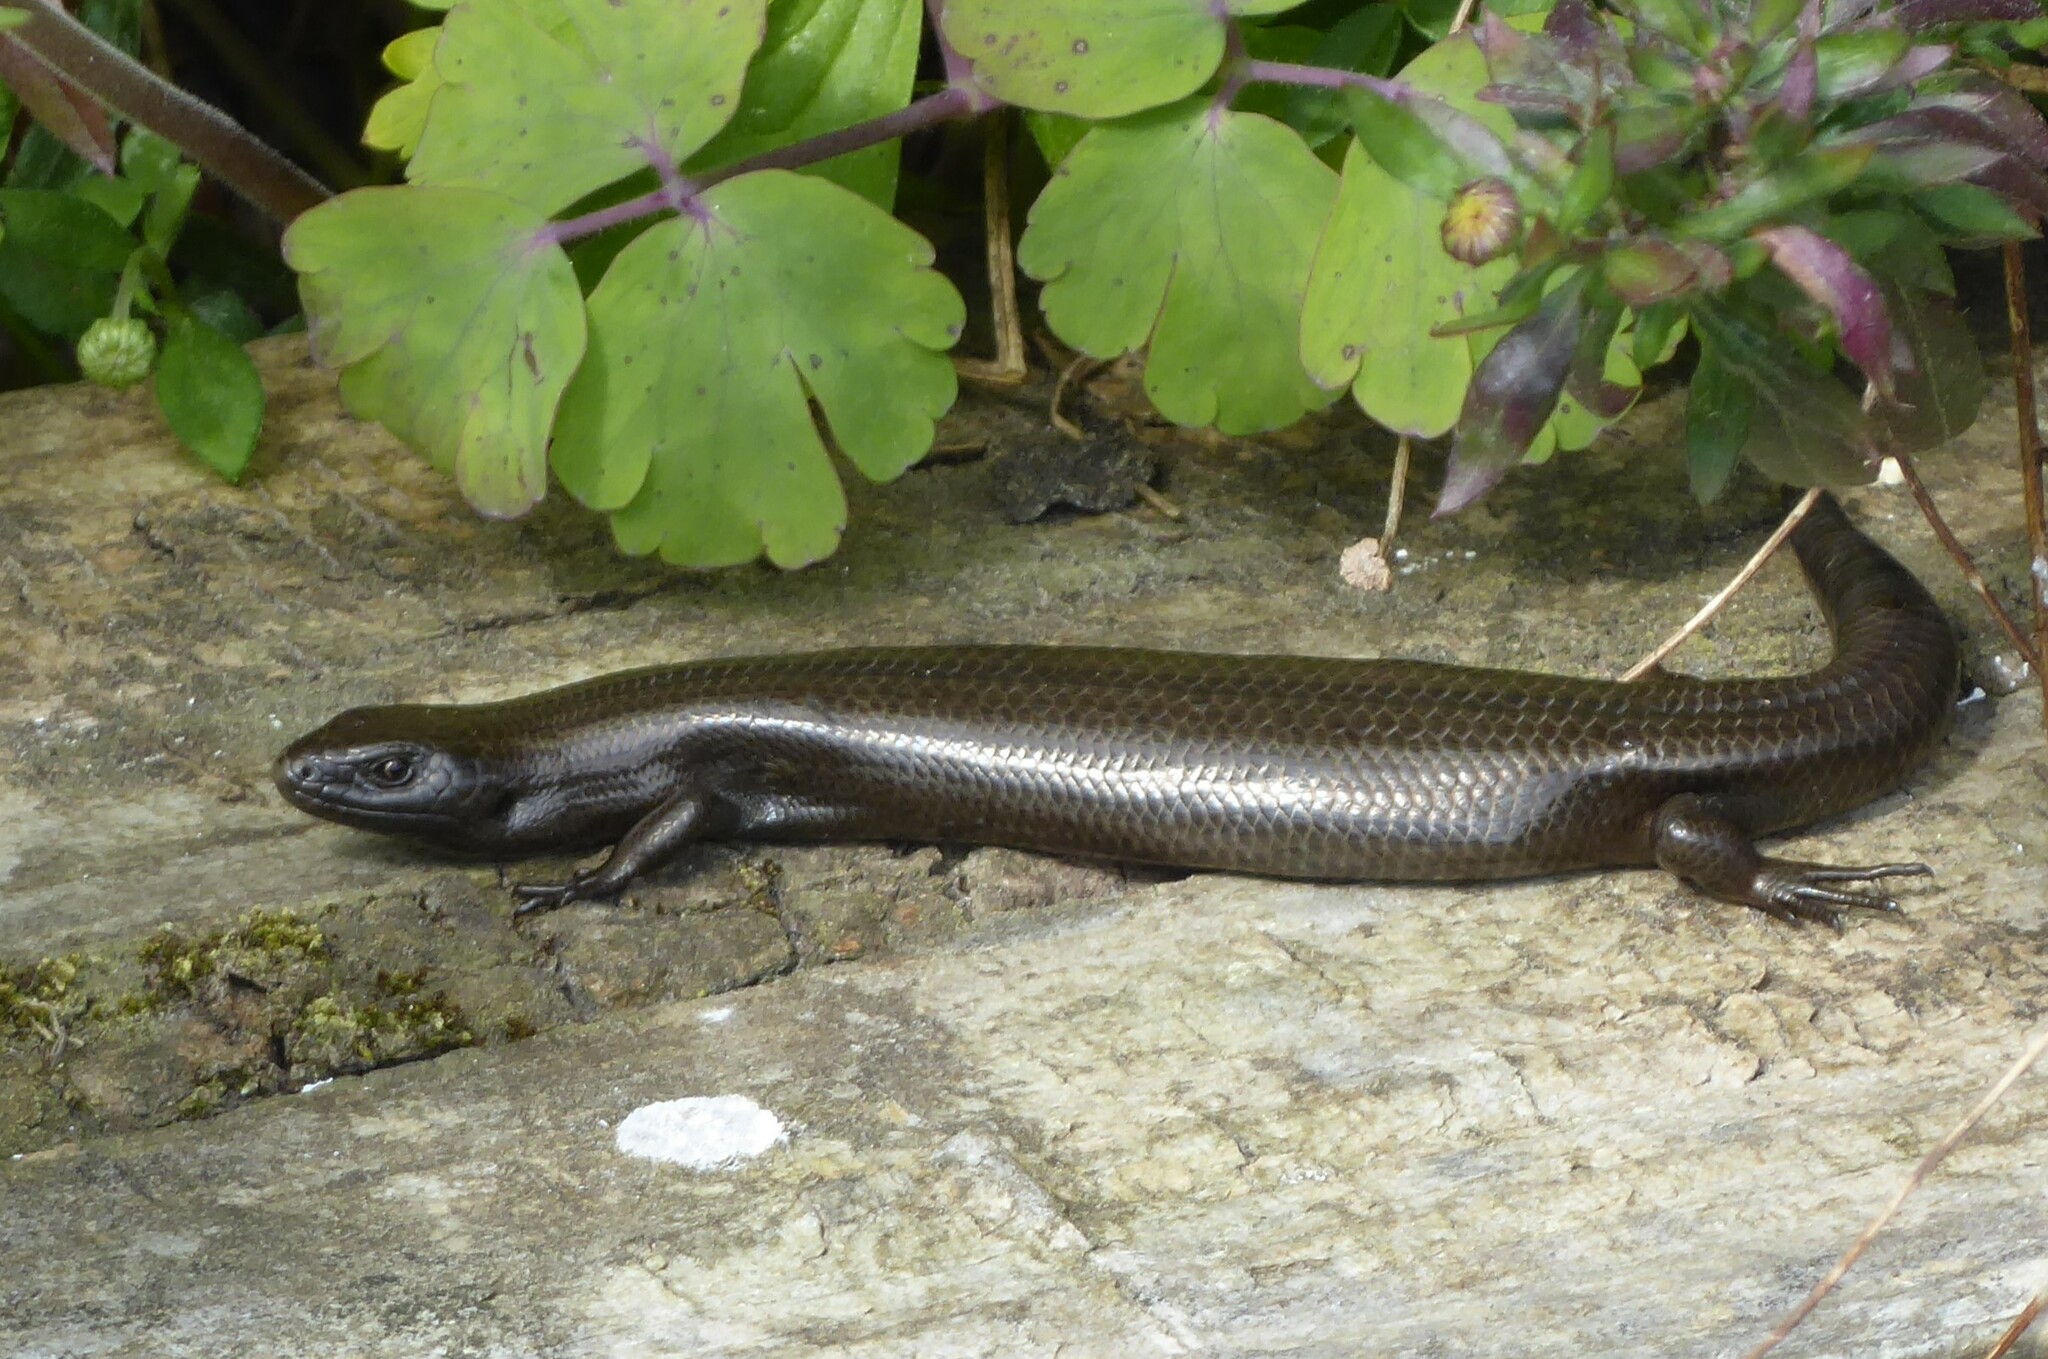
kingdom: Animalia
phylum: Chordata
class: Squamata
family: Scincidae
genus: Oligosoma
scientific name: Oligosoma polychroma
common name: Common new zealand skink
